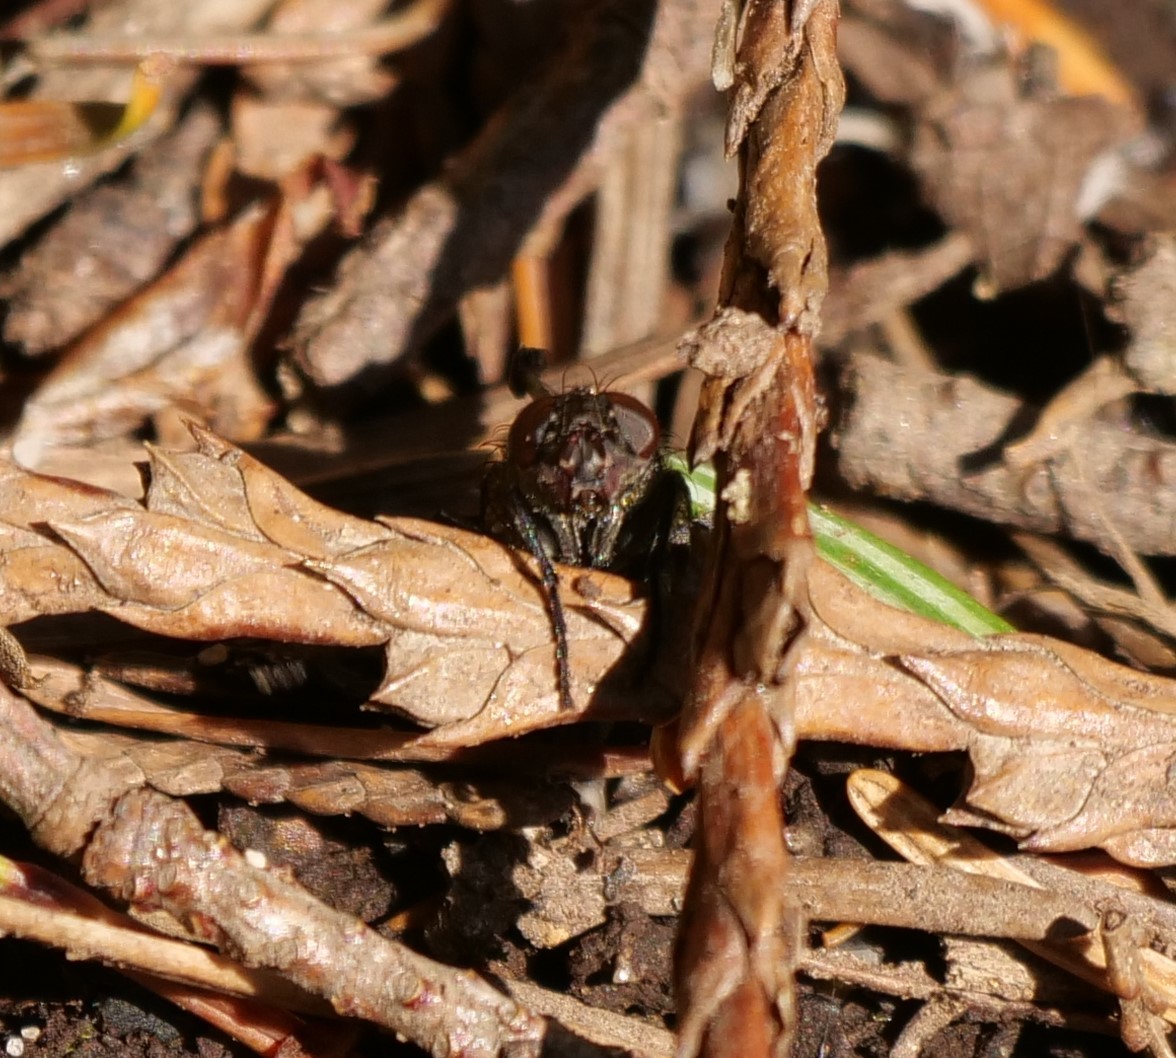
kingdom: Animalia
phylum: Arthropoda
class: Insecta
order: Diptera
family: Polleniidae
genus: Pollenia
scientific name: Pollenia vagabunda
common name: Vagabund cluster fly
